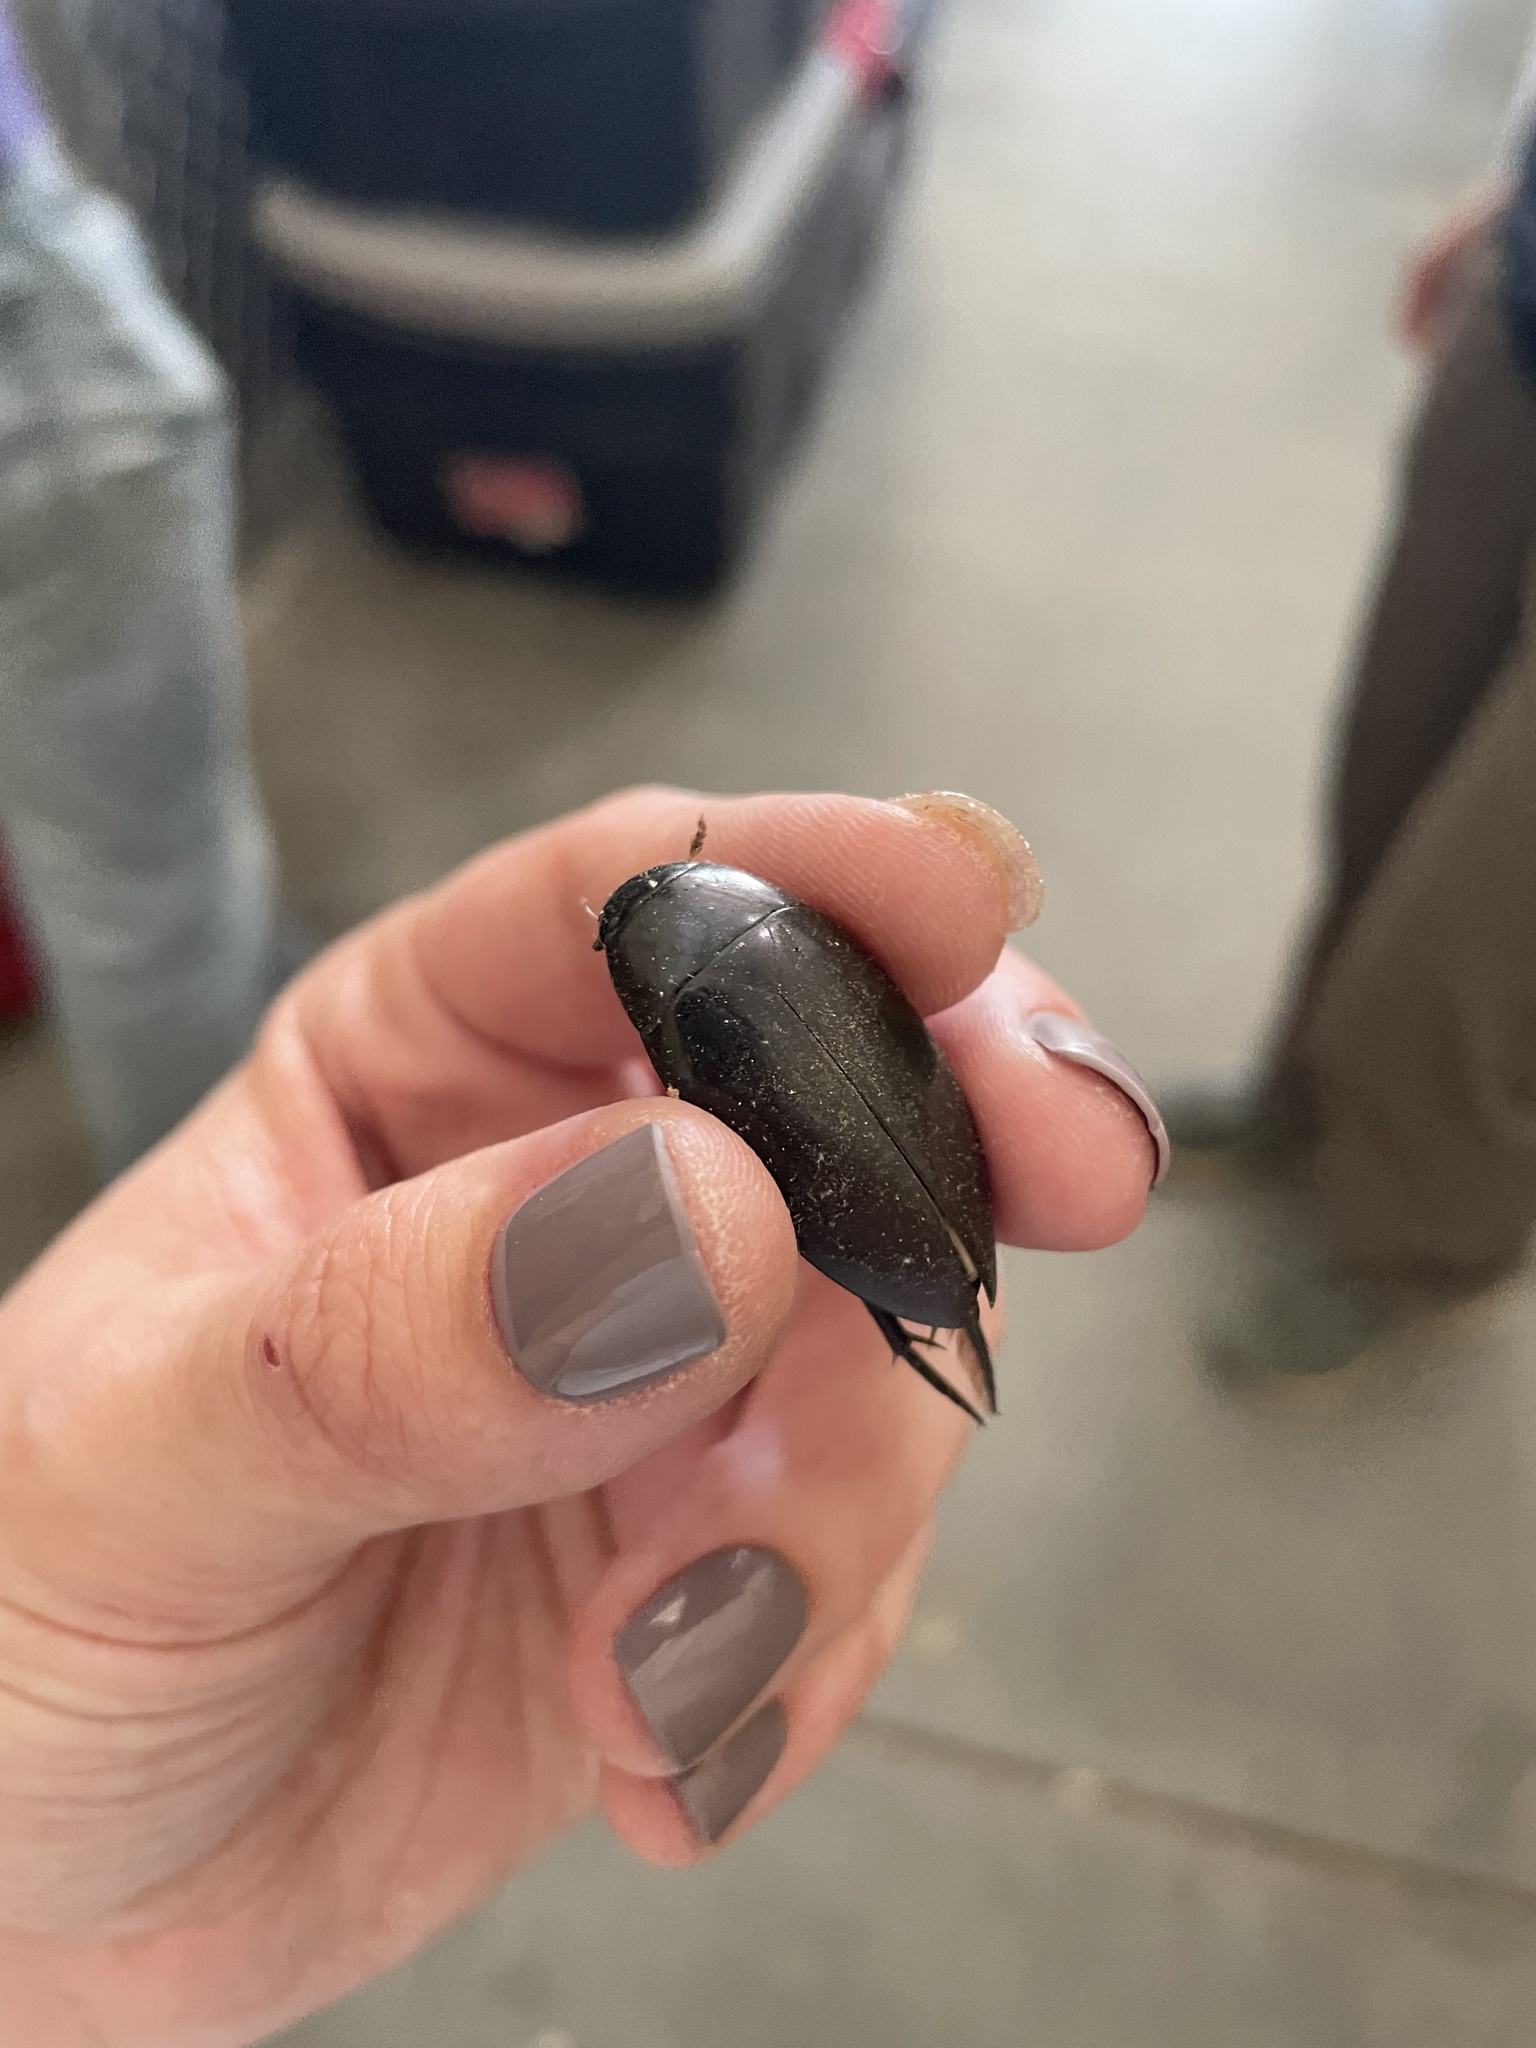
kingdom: Animalia
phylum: Arthropoda
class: Insecta
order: Coleoptera
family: Hydrophilidae
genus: Hydrophilus
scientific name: Hydrophilus triangularis
